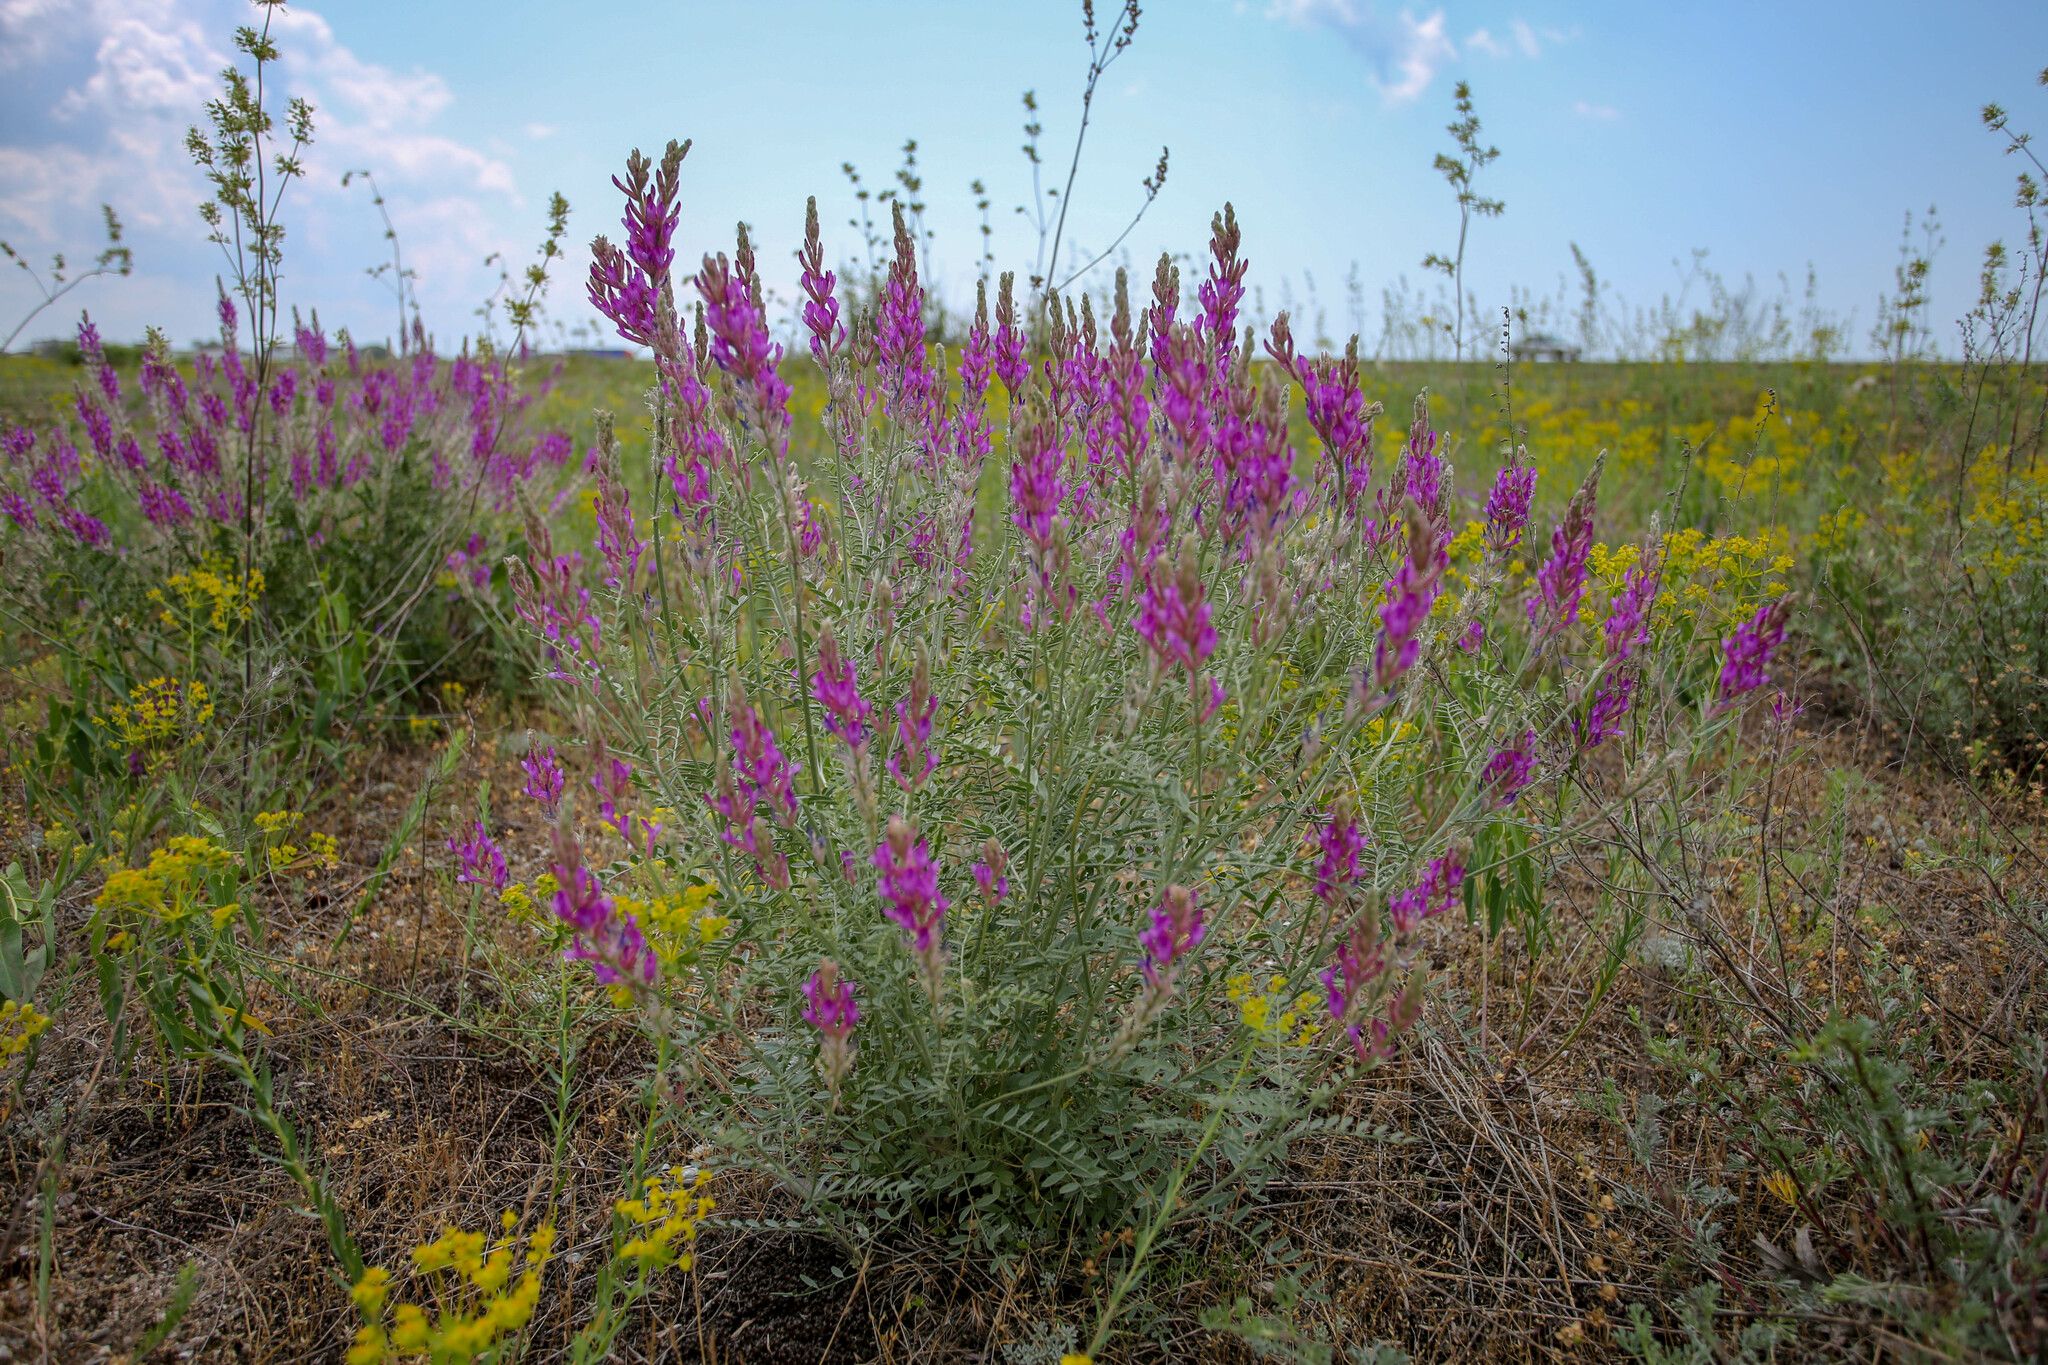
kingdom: Plantae
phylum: Tracheophyta
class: Magnoliopsida
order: Fabales
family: Fabaceae
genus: Astragalus
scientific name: Astragalus varius
